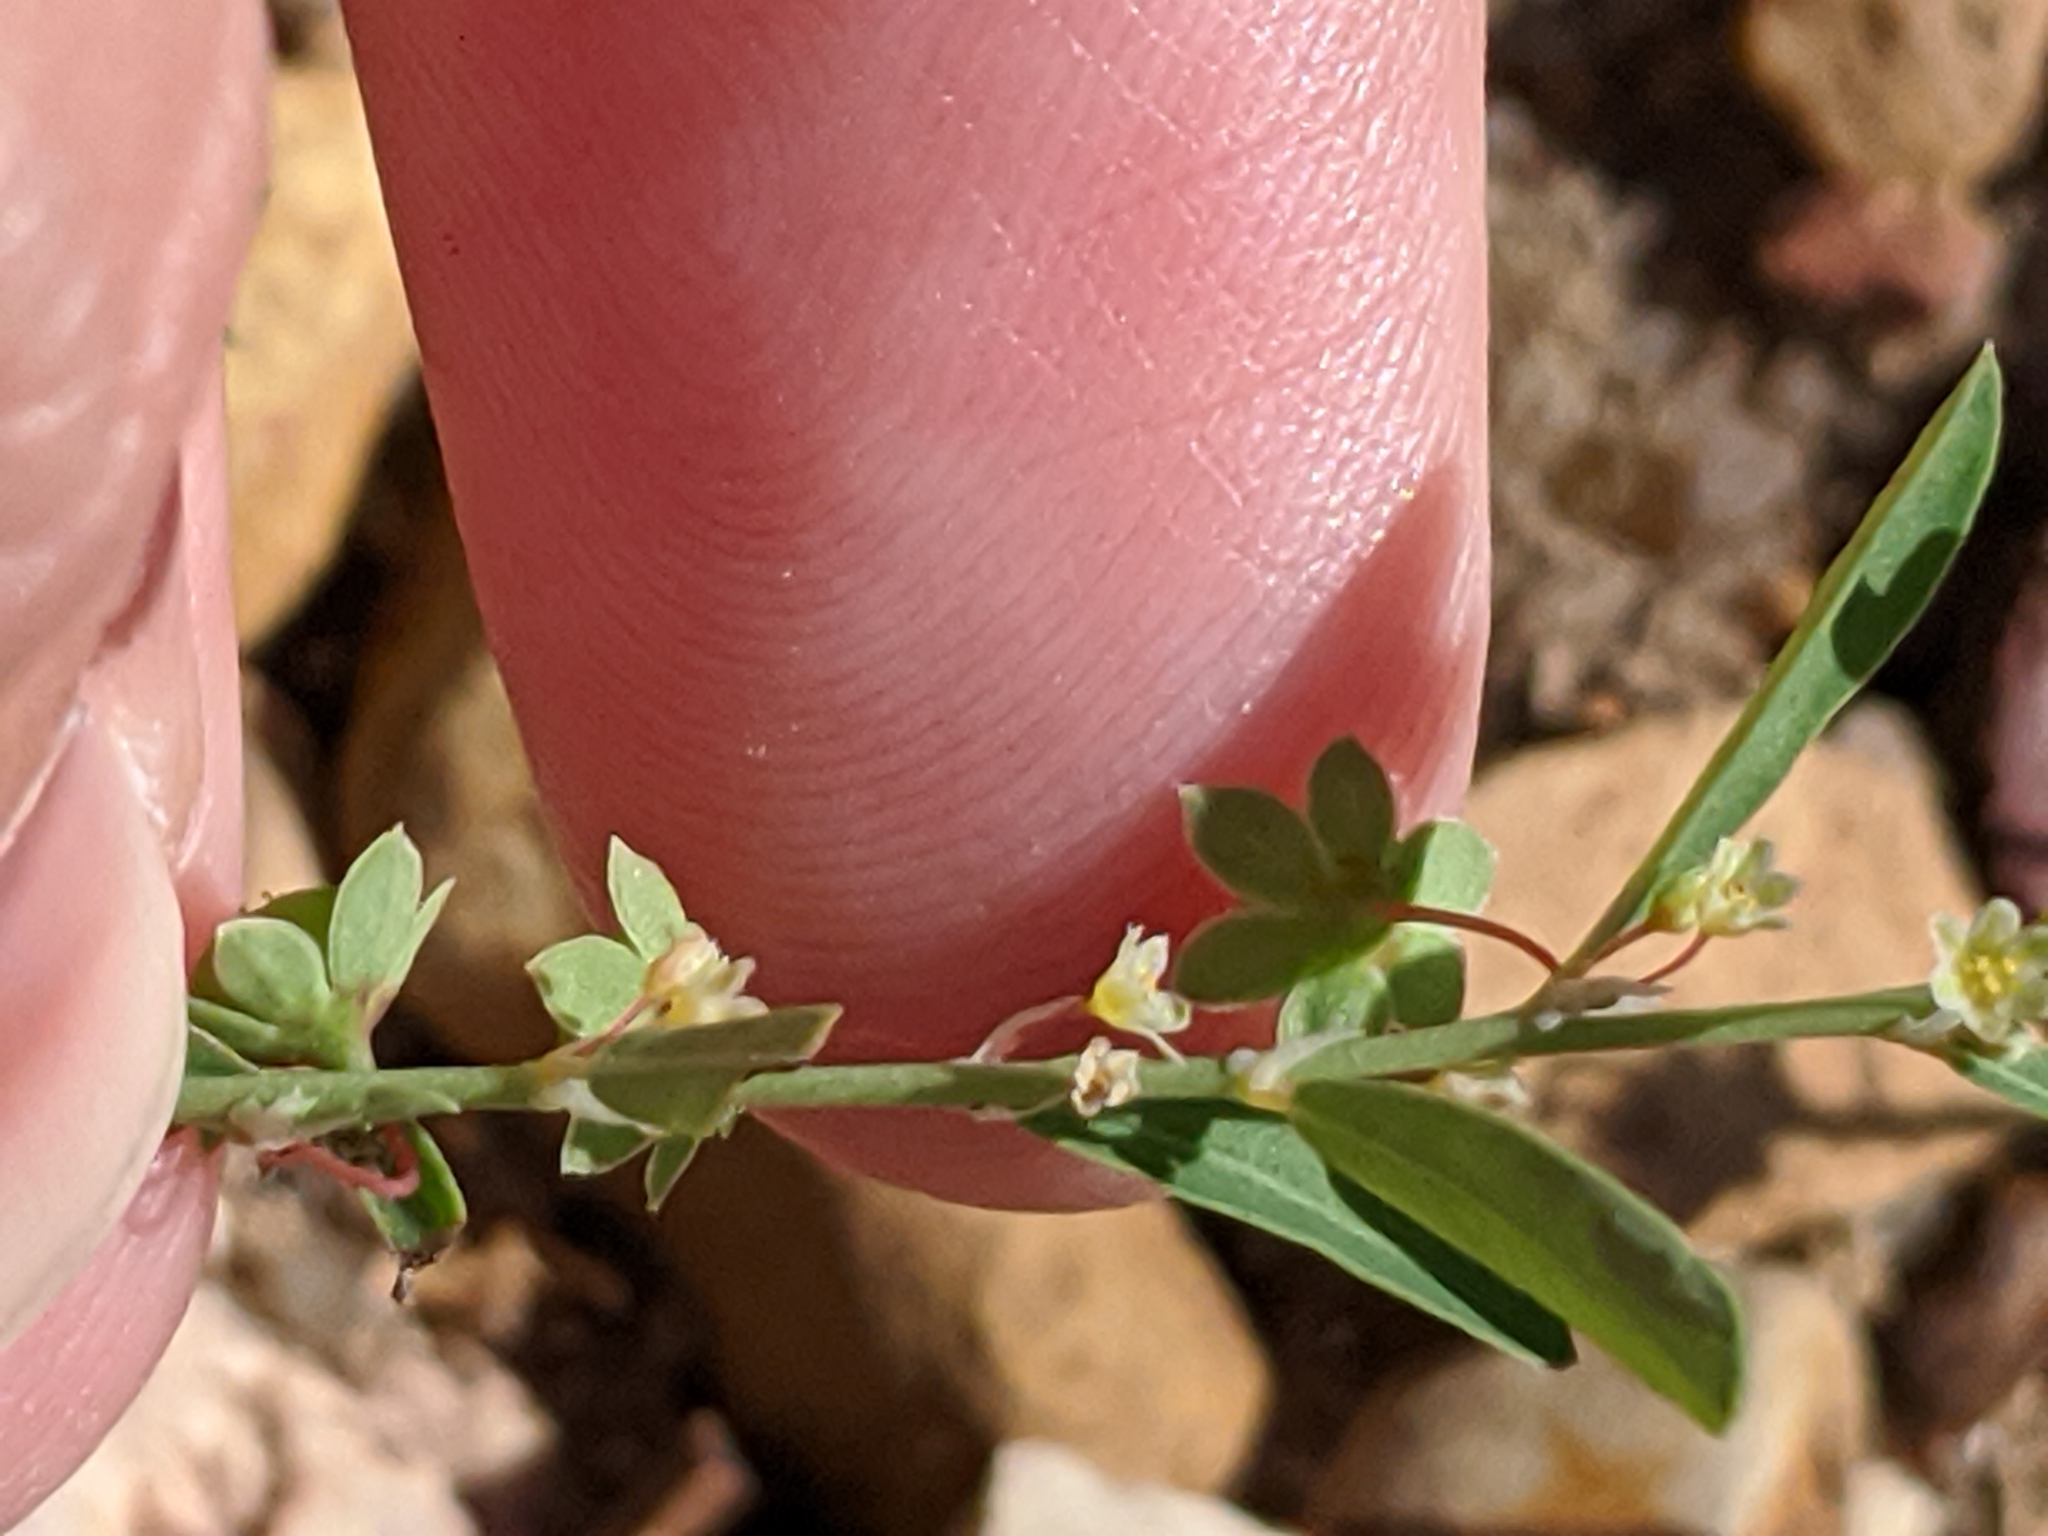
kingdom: Plantae
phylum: Tracheophyta
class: Magnoliopsida
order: Malpighiales
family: Phyllanthaceae
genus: Phyllanthus
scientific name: Phyllanthus polygonoides
